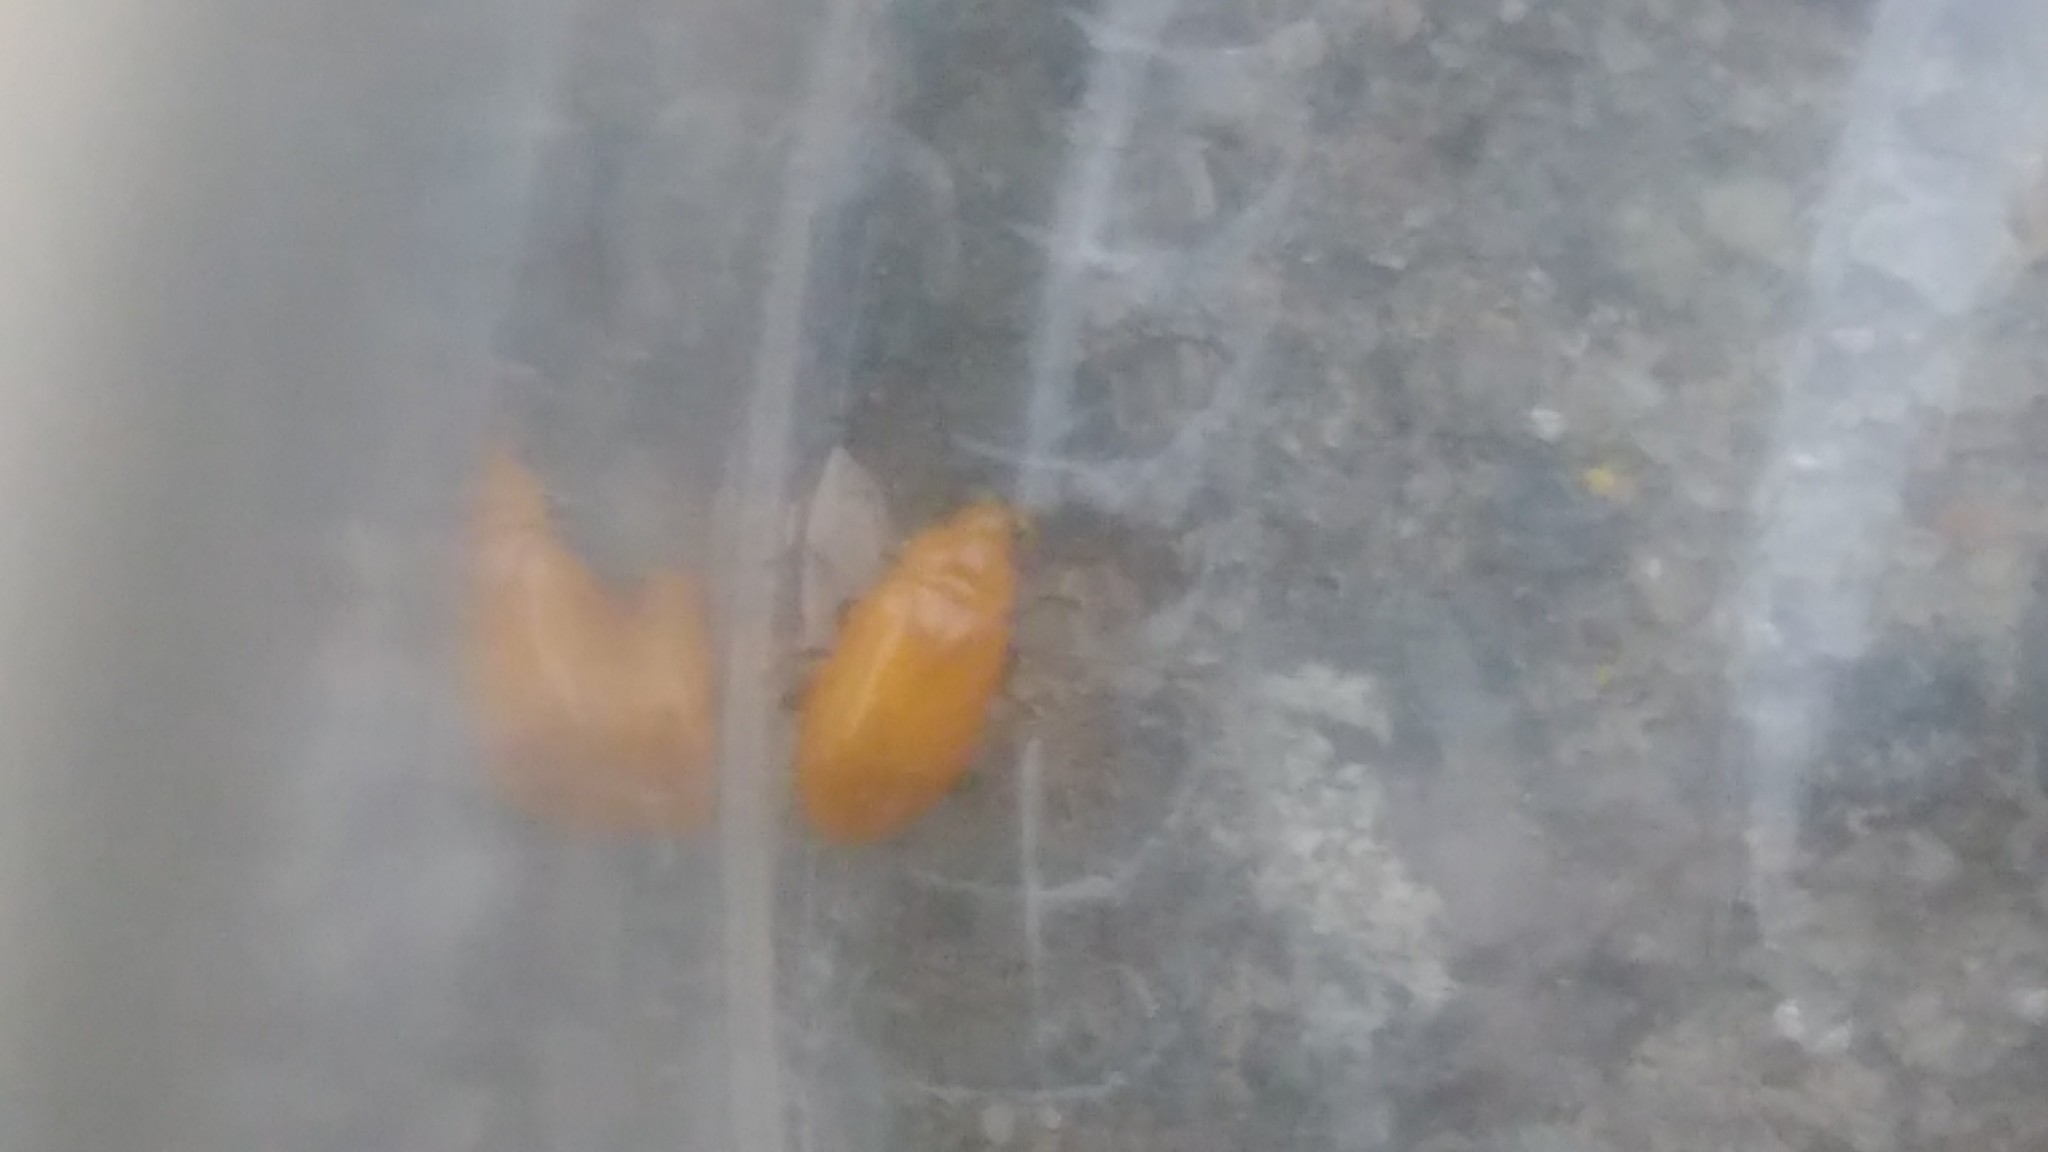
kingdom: Animalia
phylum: Arthropoda
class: Insecta
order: Coleoptera
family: Chrysomelidae
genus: Parchicola
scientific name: Parchicola
